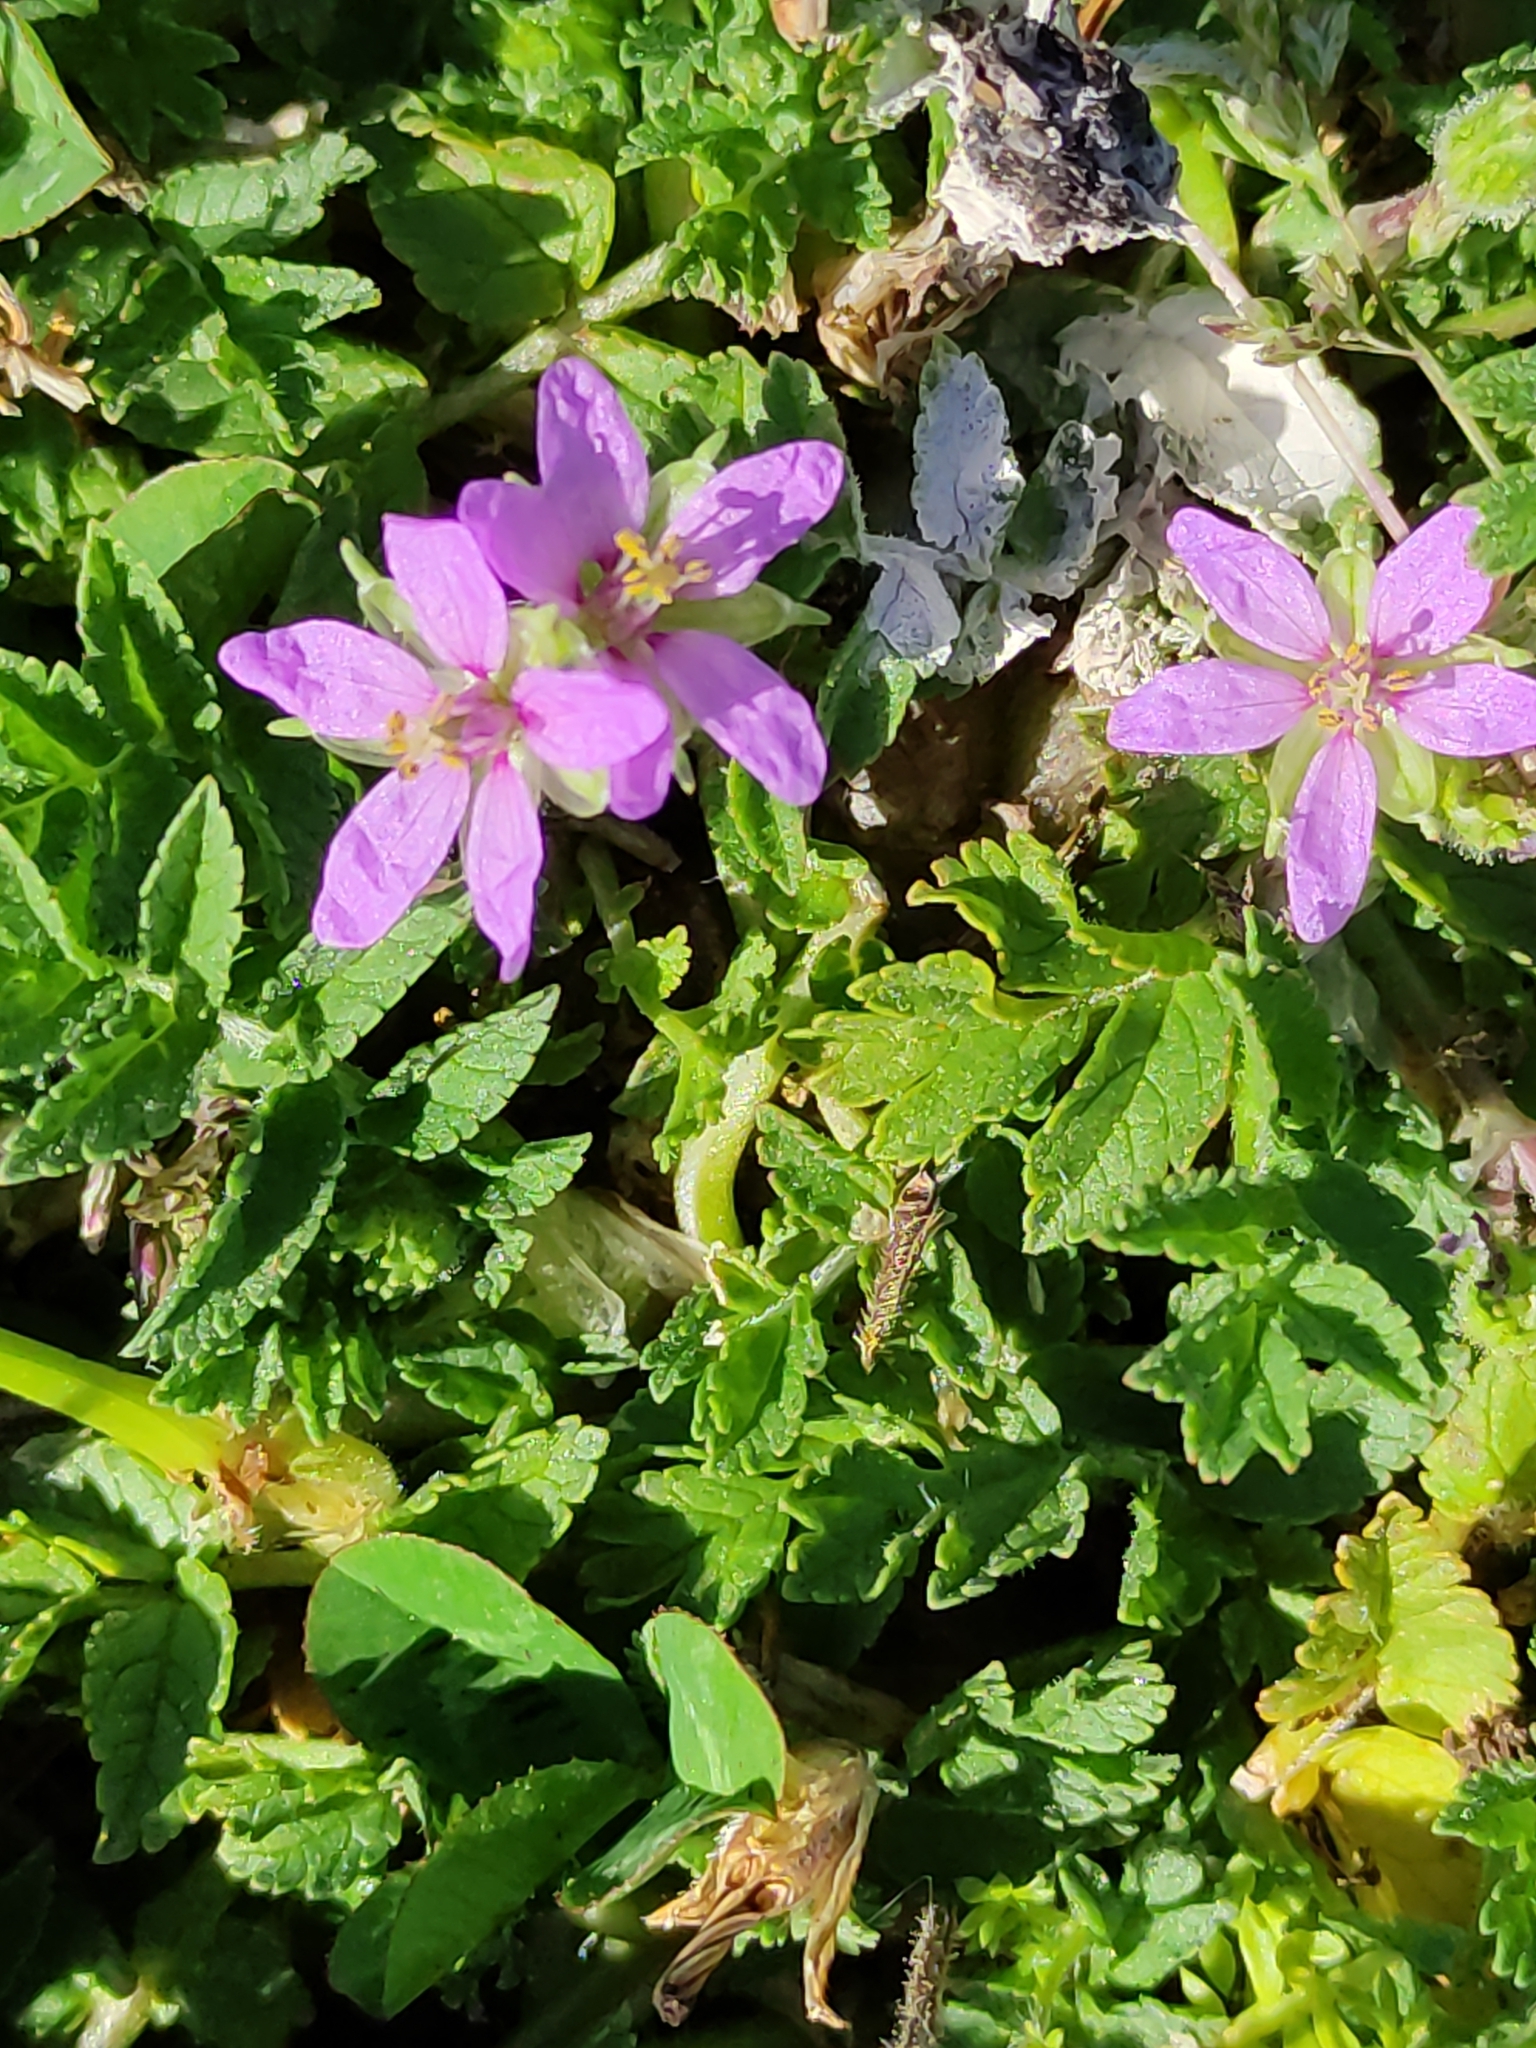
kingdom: Plantae
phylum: Tracheophyta
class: Magnoliopsida
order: Geraniales
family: Geraniaceae
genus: Erodium
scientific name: Erodium moschatum
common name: Musk stork's-bill
